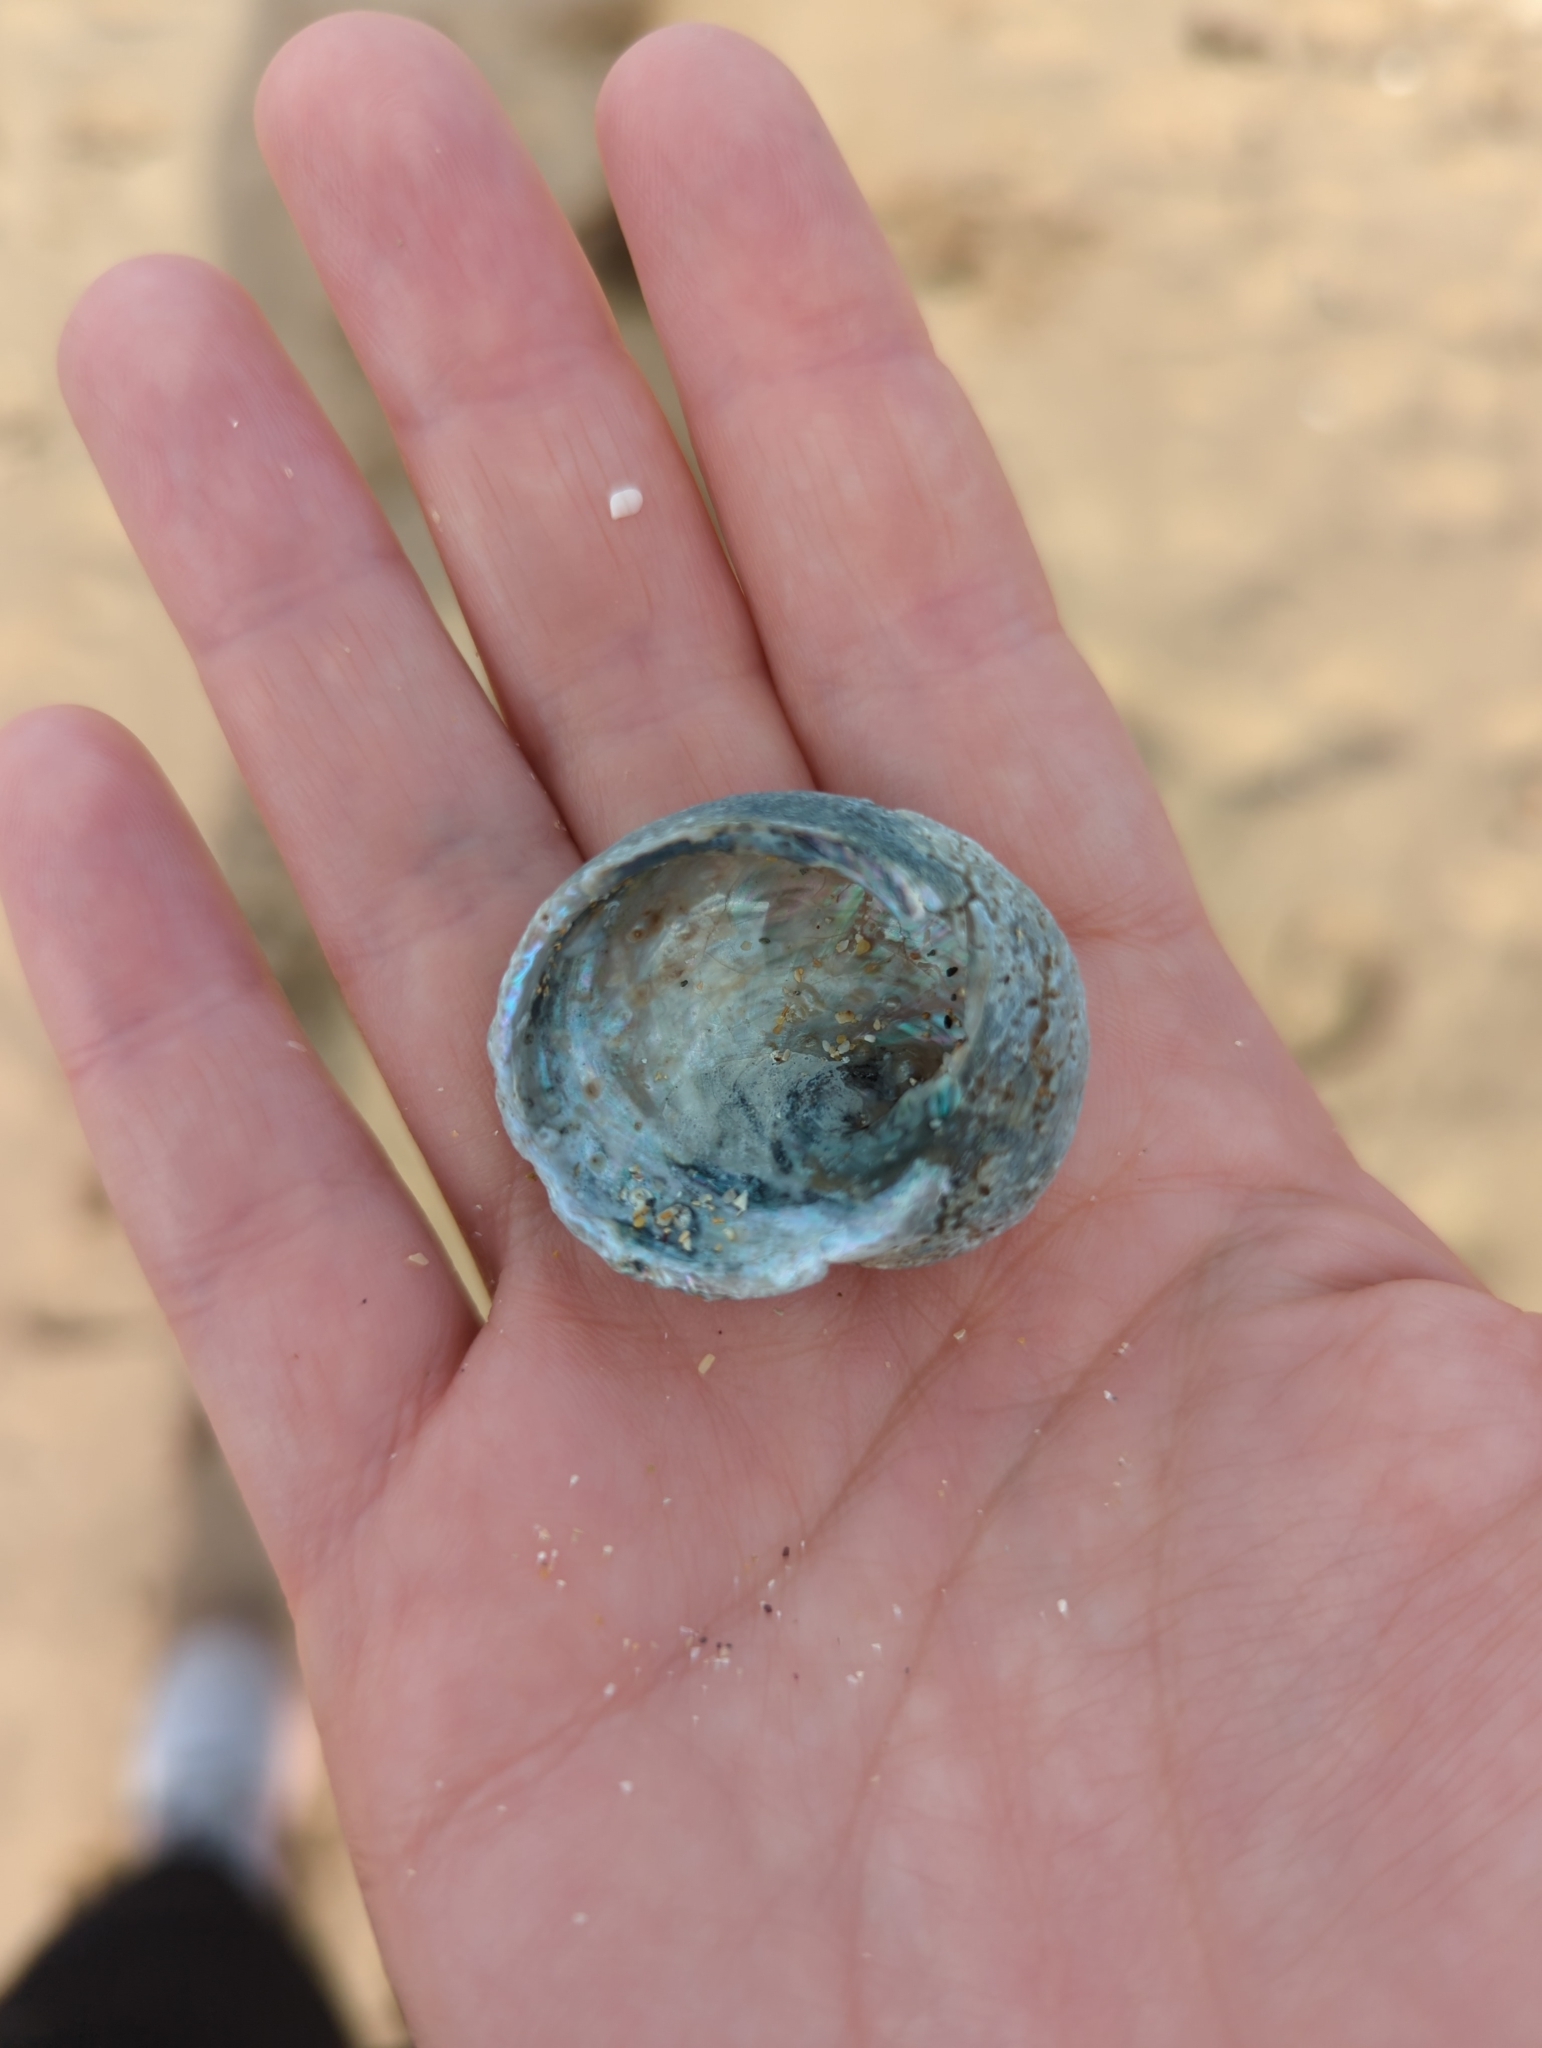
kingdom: Animalia
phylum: Mollusca
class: Gastropoda
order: Seguenziida
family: Chilodontaidae
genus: Granata
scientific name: Granata imbricata
